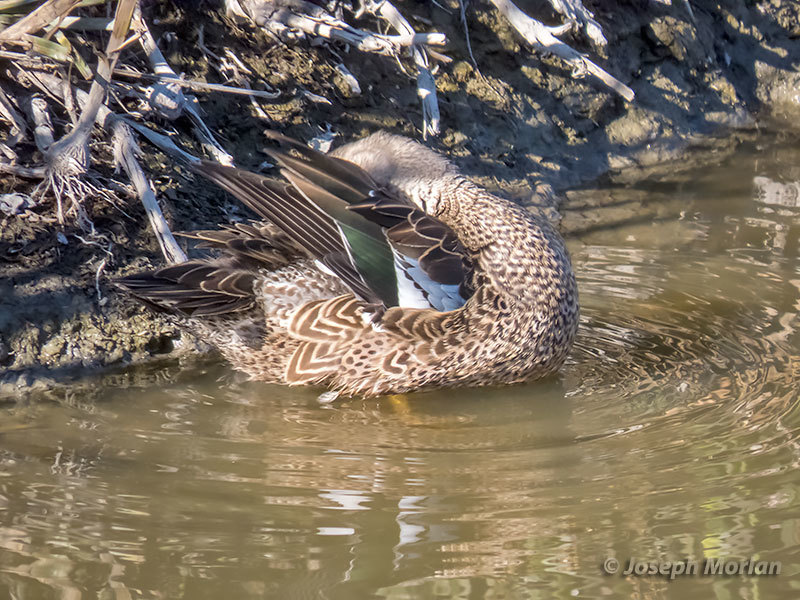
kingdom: Animalia
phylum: Chordata
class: Aves
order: Anseriformes
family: Anatidae
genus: Spatula
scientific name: Spatula cyanoptera
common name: Cinnamon teal
